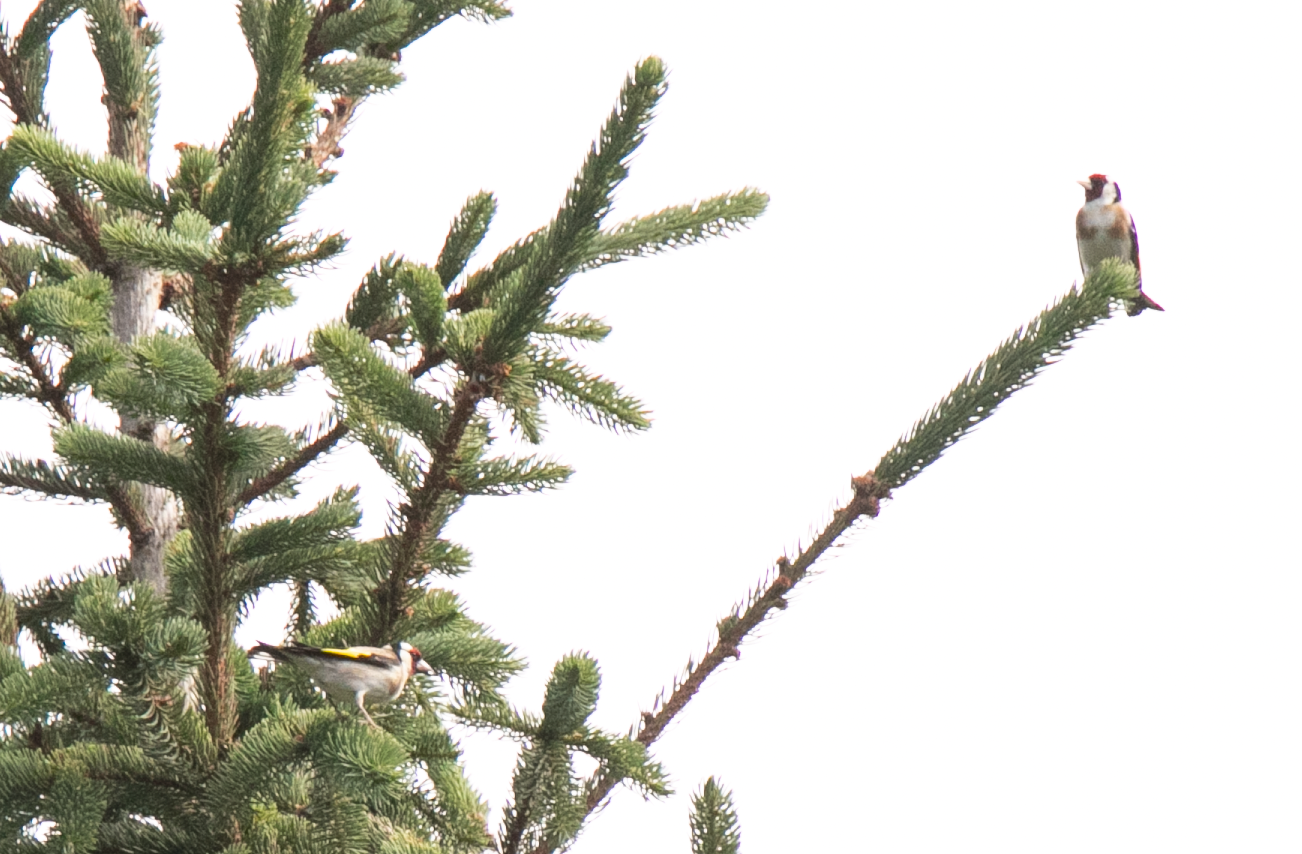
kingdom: Animalia
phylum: Chordata
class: Aves
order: Passeriformes
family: Fringillidae
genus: Carduelis
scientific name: Carduelis carduelis
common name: European goldfinch
